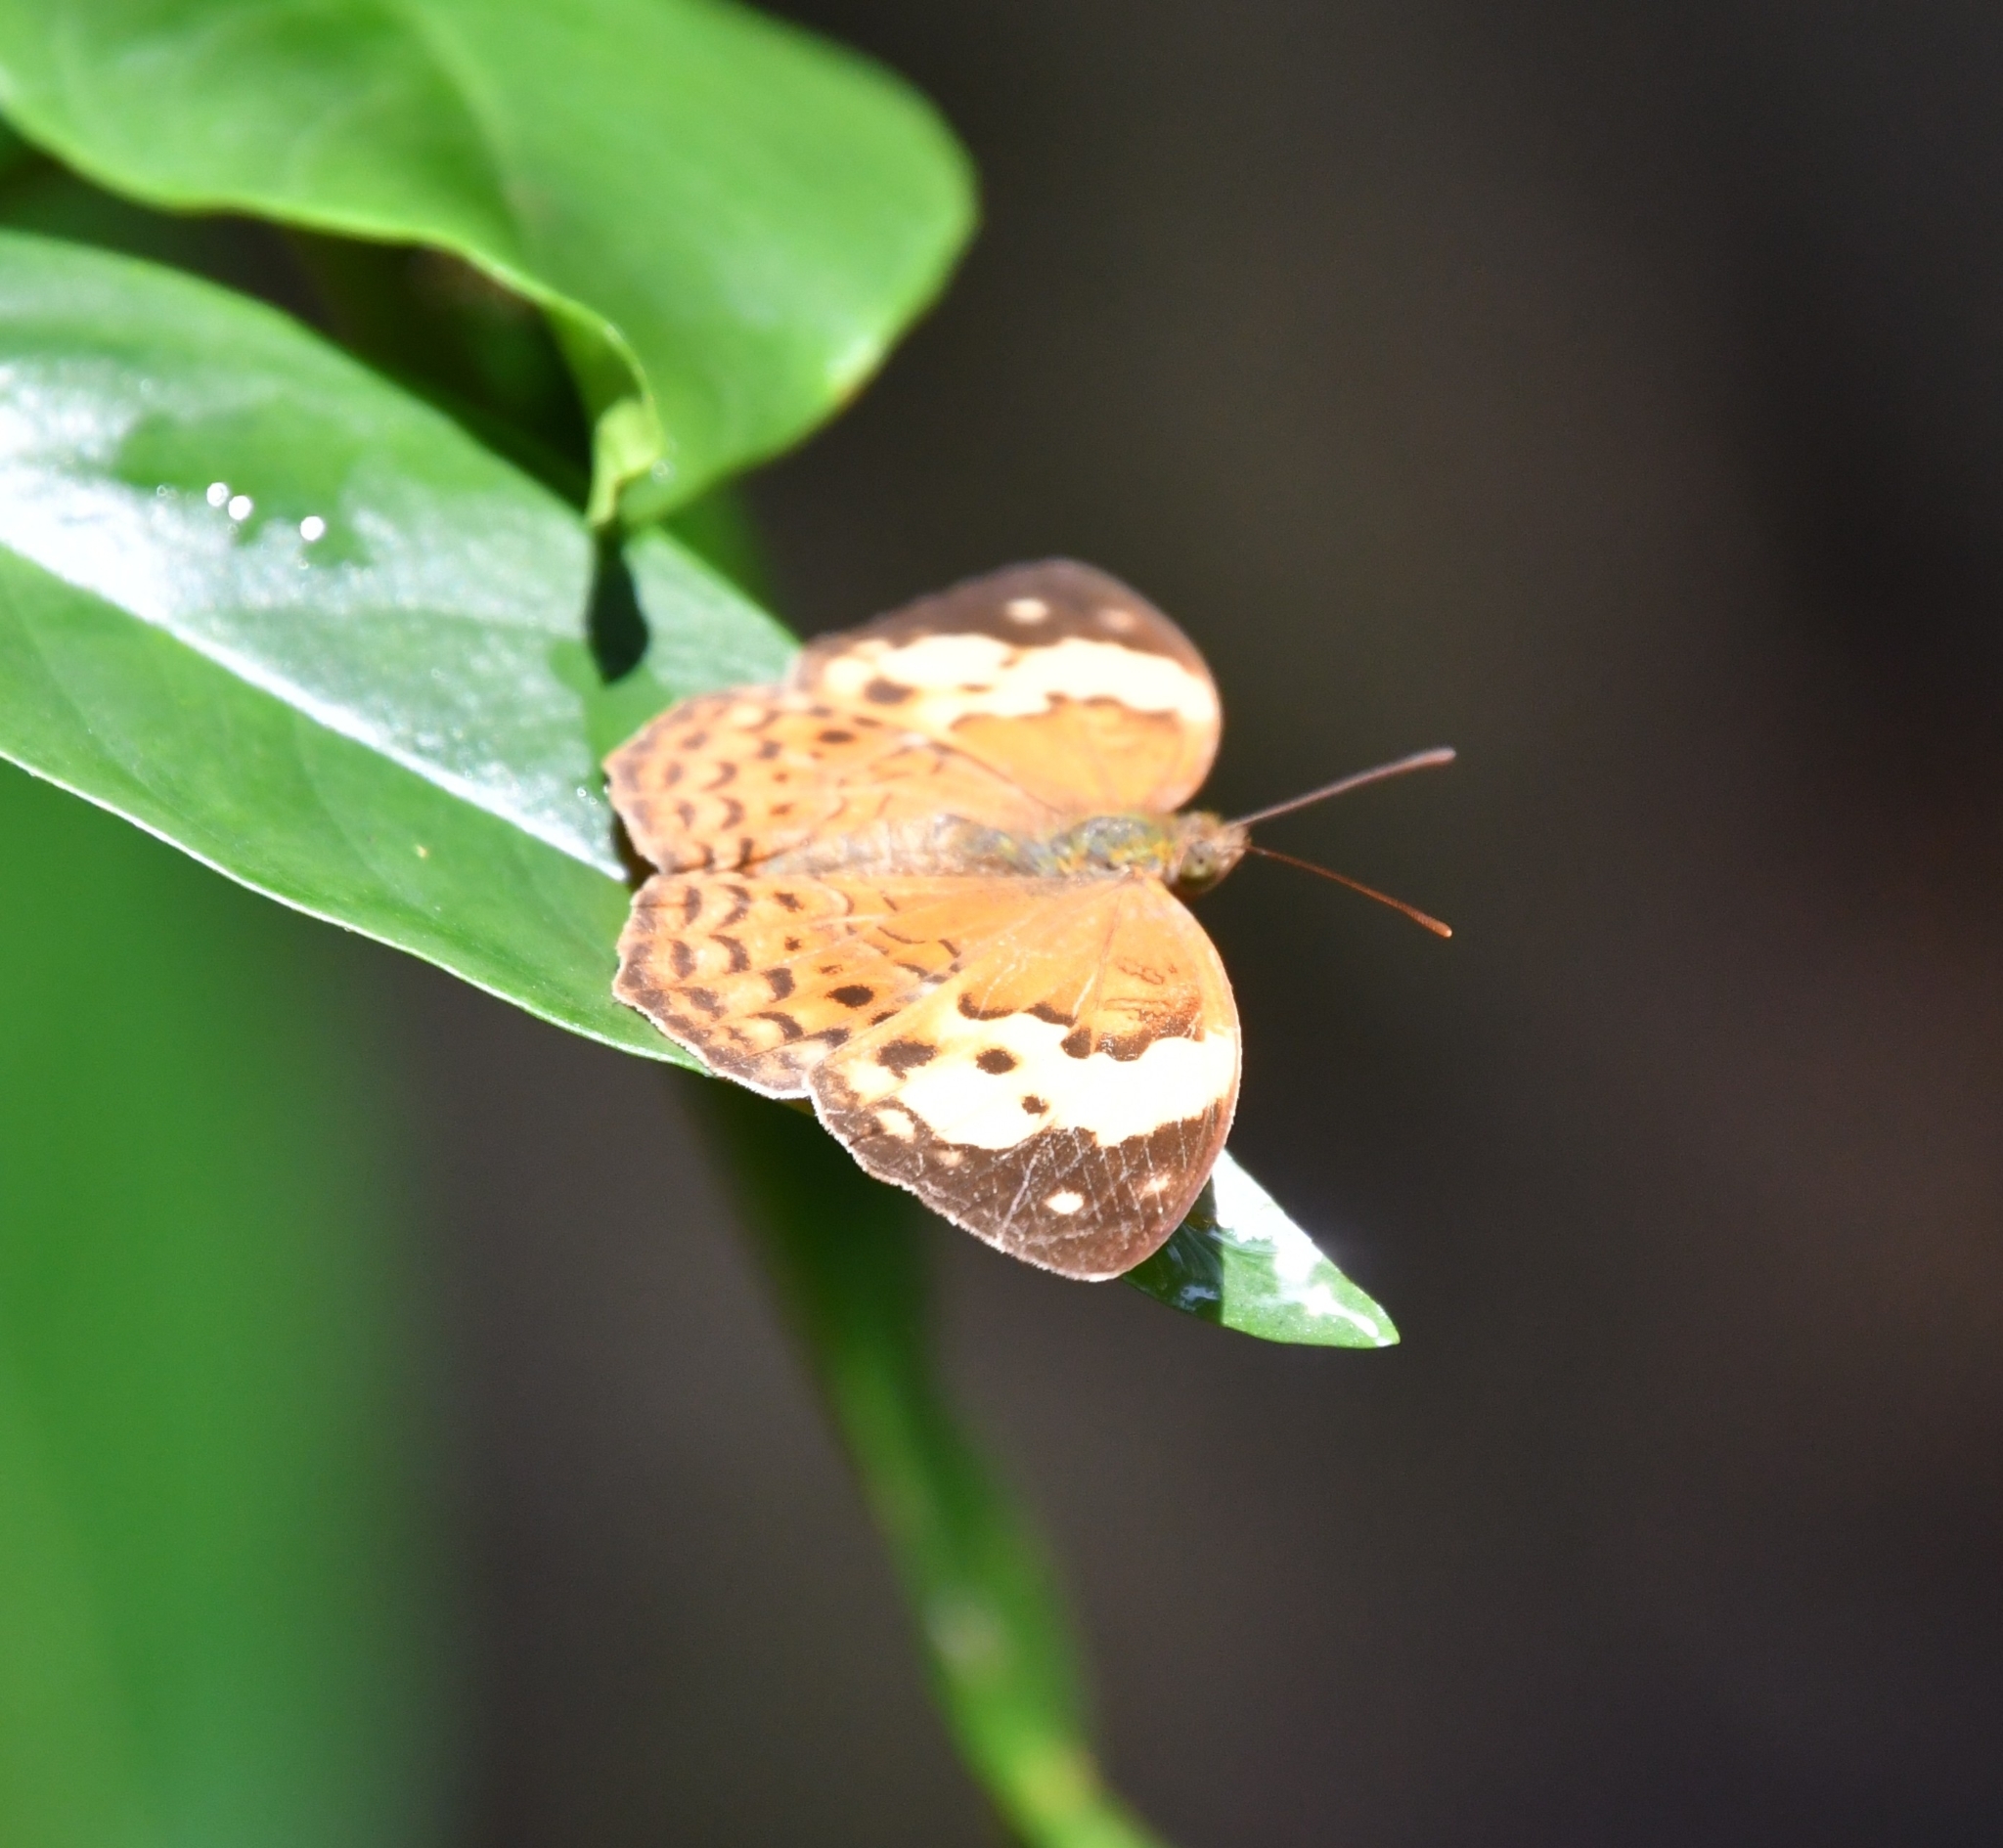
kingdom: Animalia
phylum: Arthropoda
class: Insecta
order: Lepidoptera
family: Nymphalidae
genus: Cupha
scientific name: Cupha erymanthis
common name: Rustic
